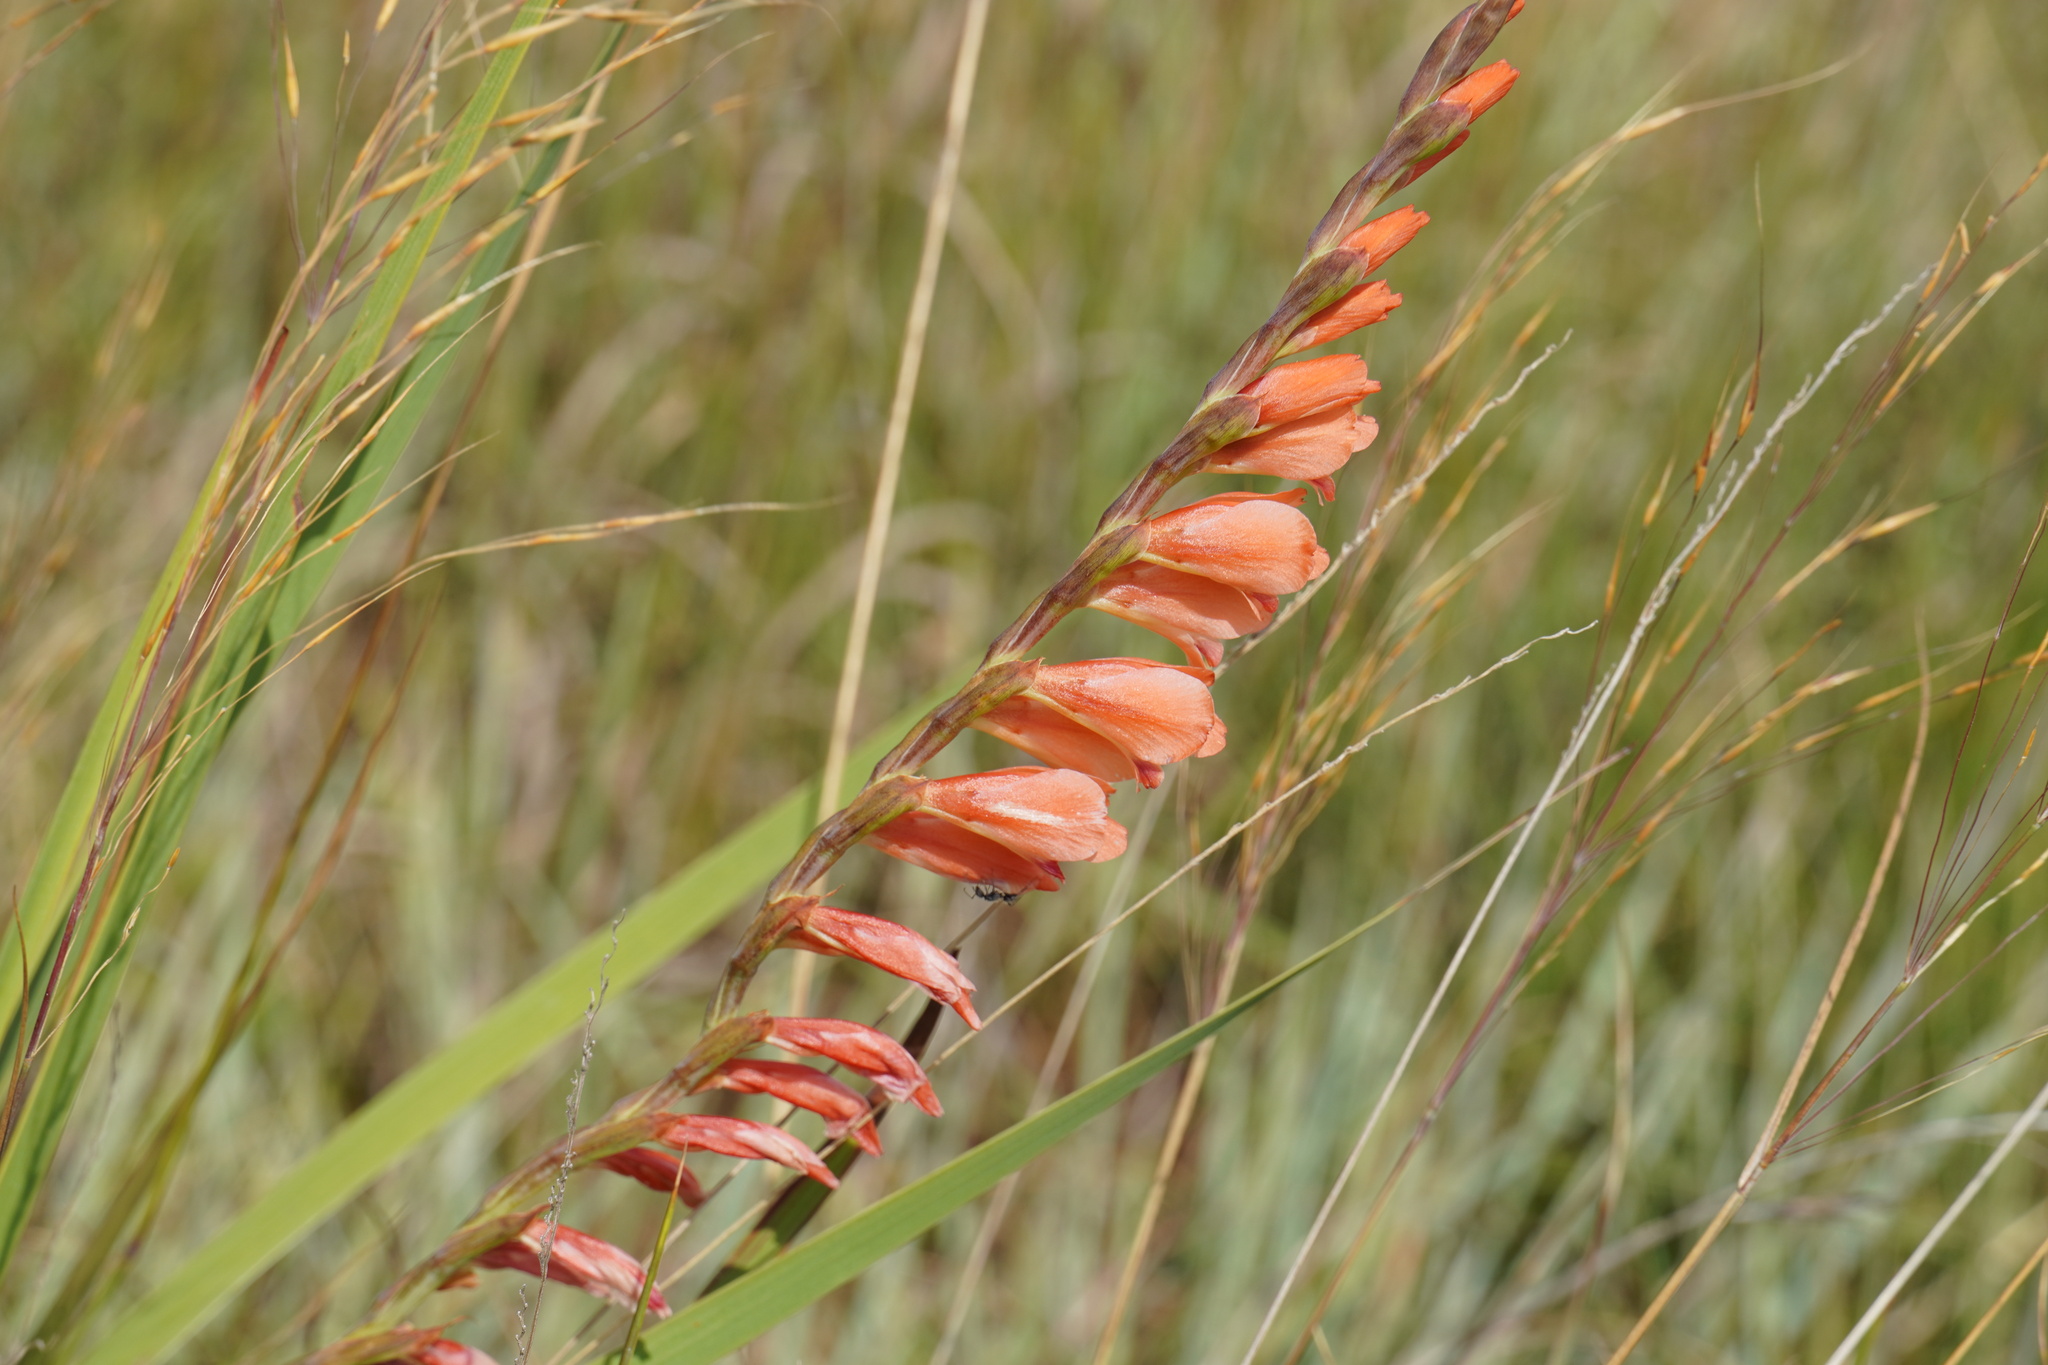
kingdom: Plantae
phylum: Tracheophyta
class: Liliopsida
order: Asparagales
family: Iridaceae
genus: Gladiolus
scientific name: Gladiolus crassifolius
